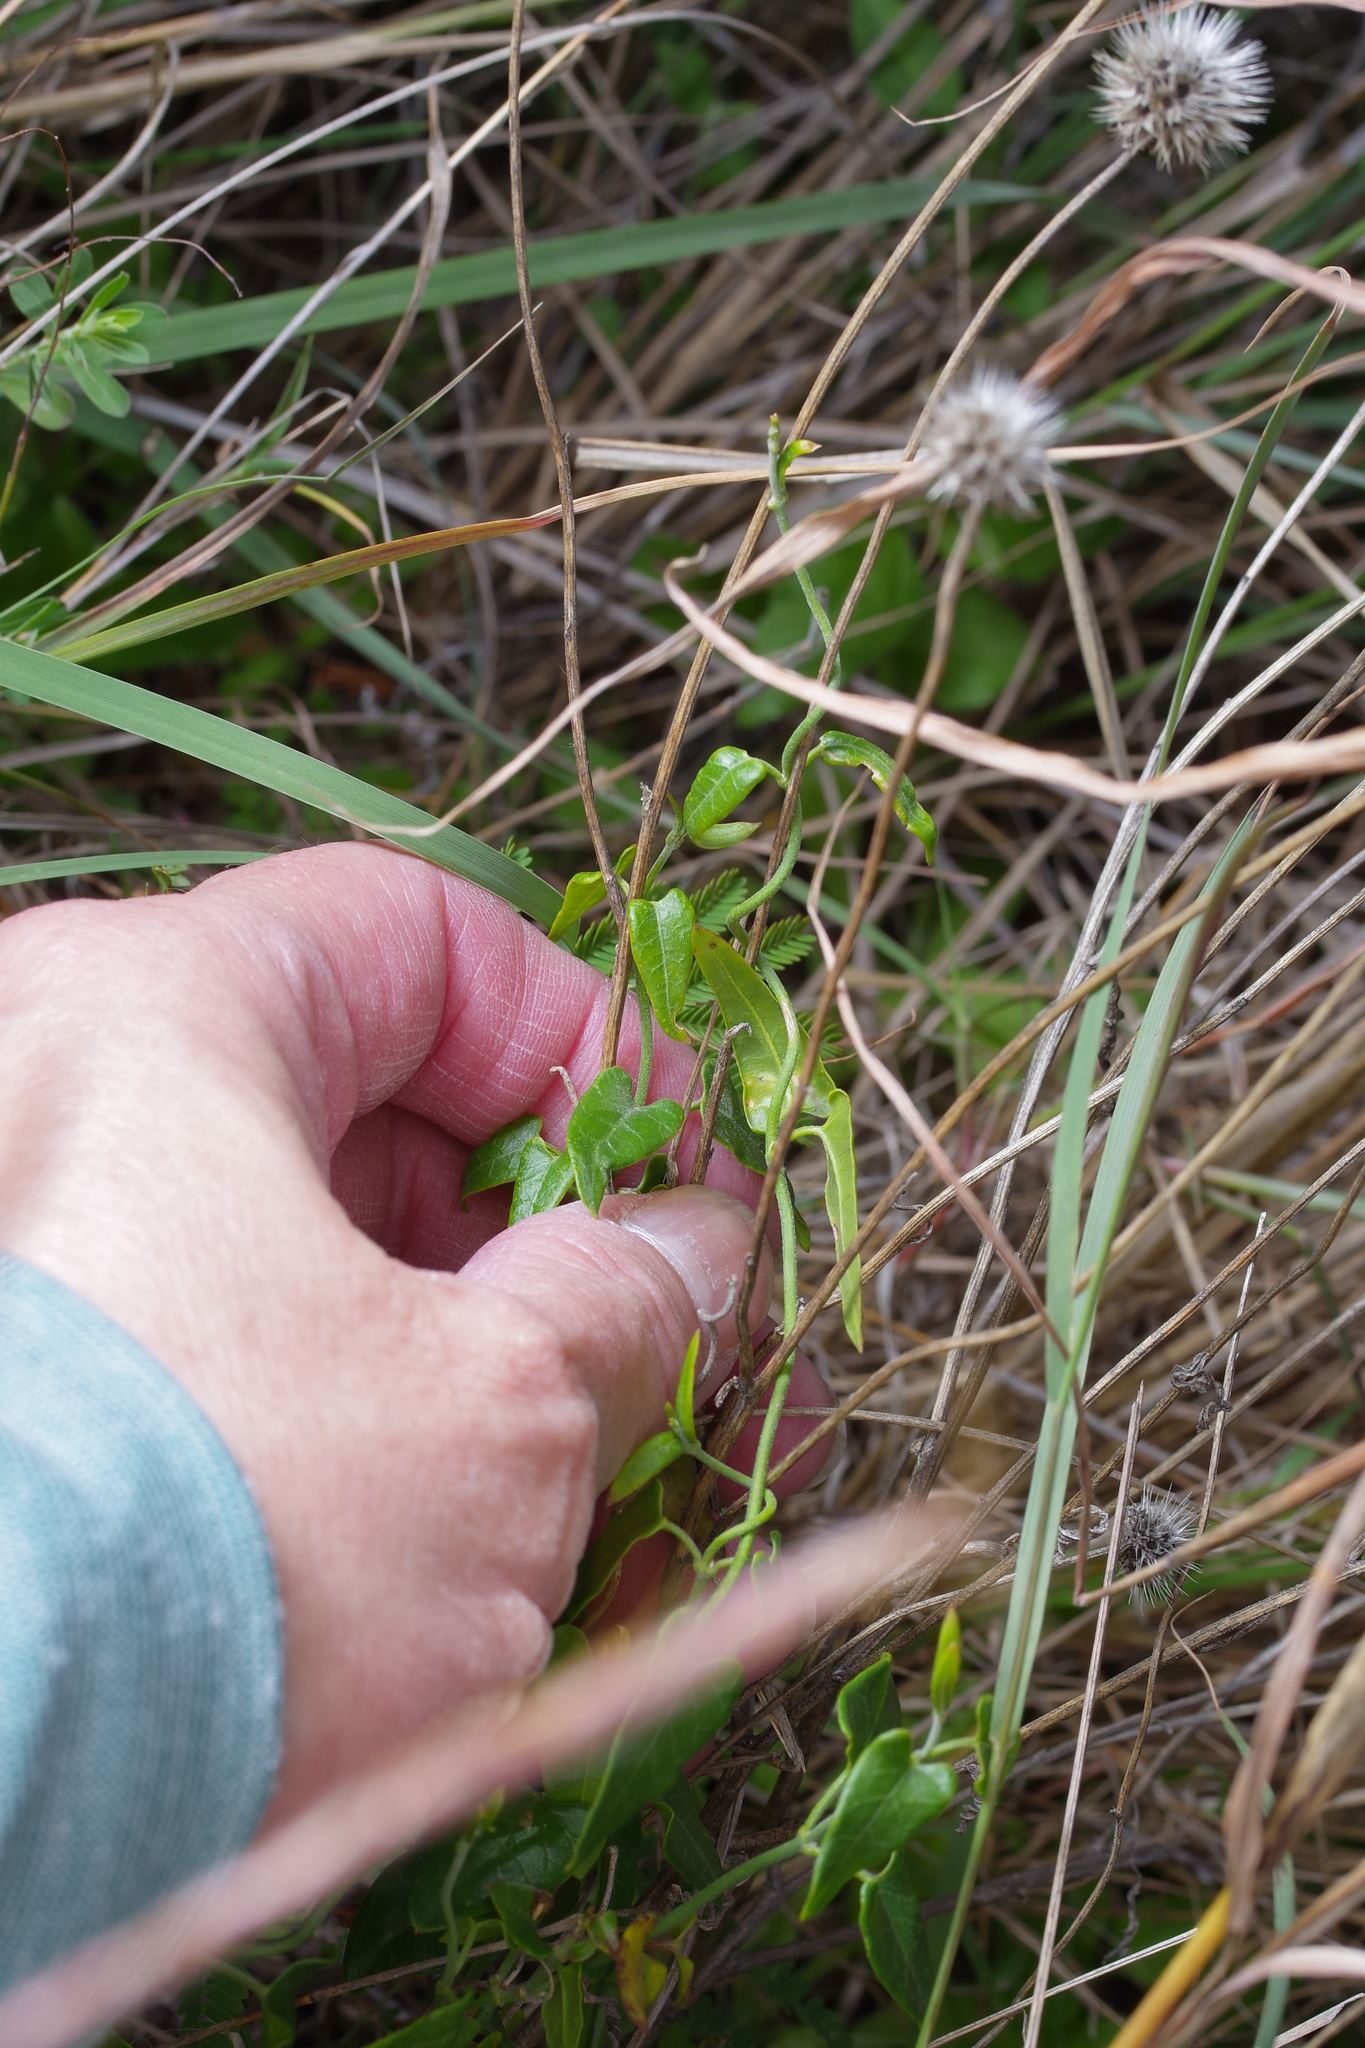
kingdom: Plantae
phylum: Tracheophyta
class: Magnoliopsida
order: Gentianales
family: Apocynaceae
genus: Matelea
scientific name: Matelea sagittifolia
